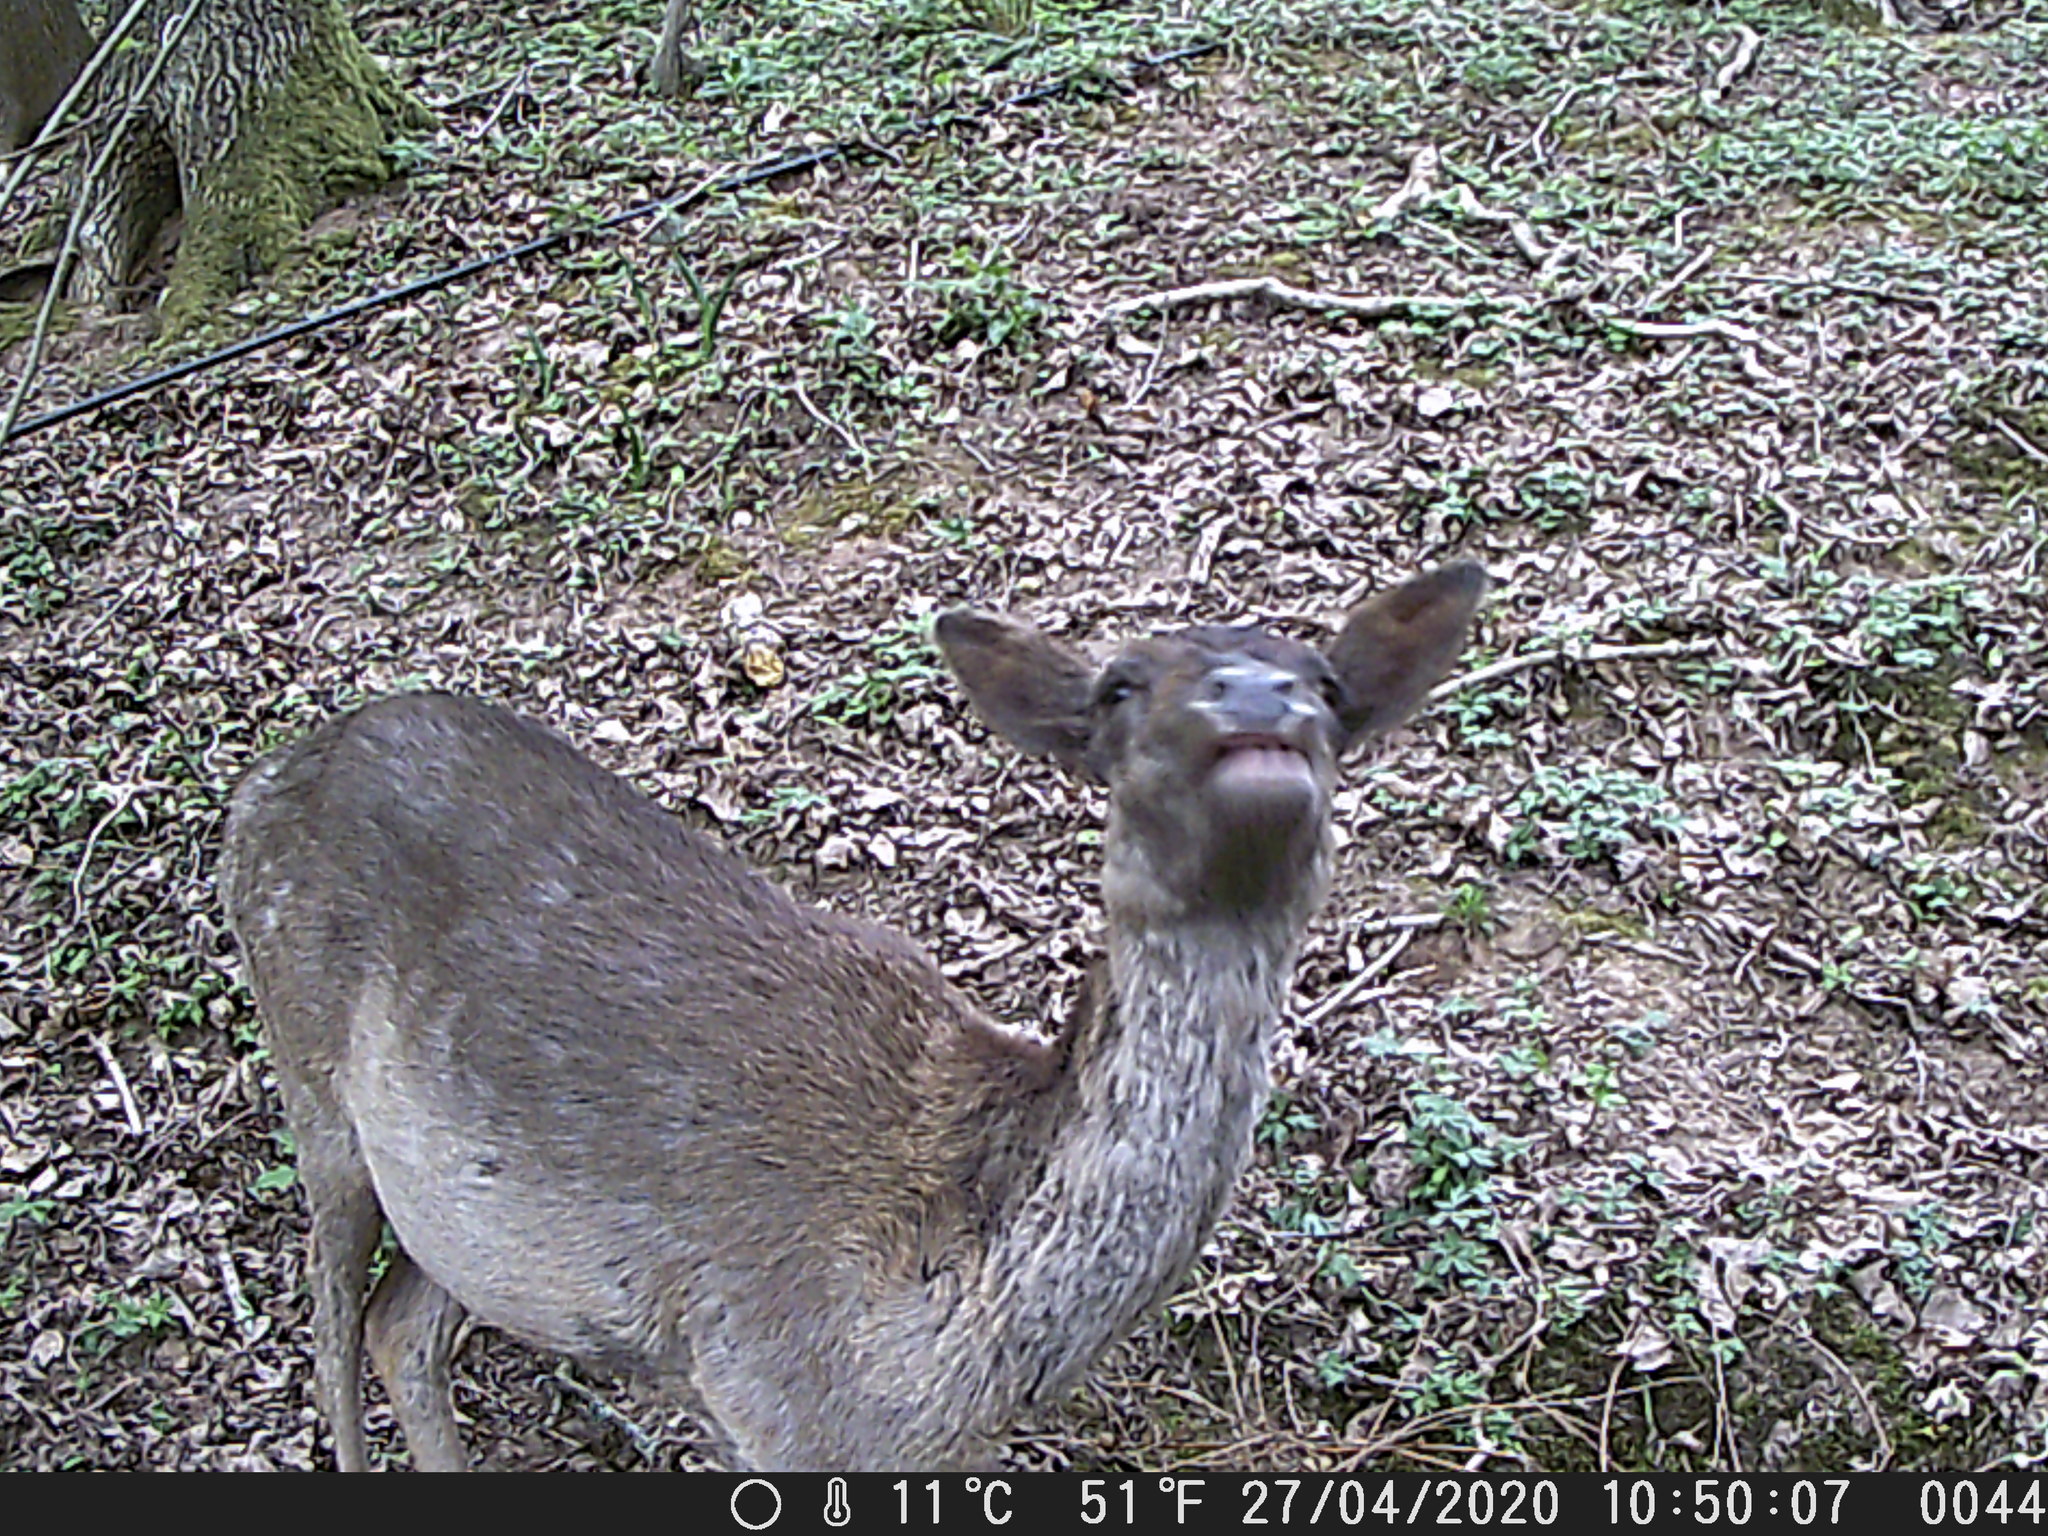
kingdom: Animalia
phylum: Chordata
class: Mammalia
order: Artiodactyla
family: Cervidae
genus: Dama
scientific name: Dama dama
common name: Fallow deer
